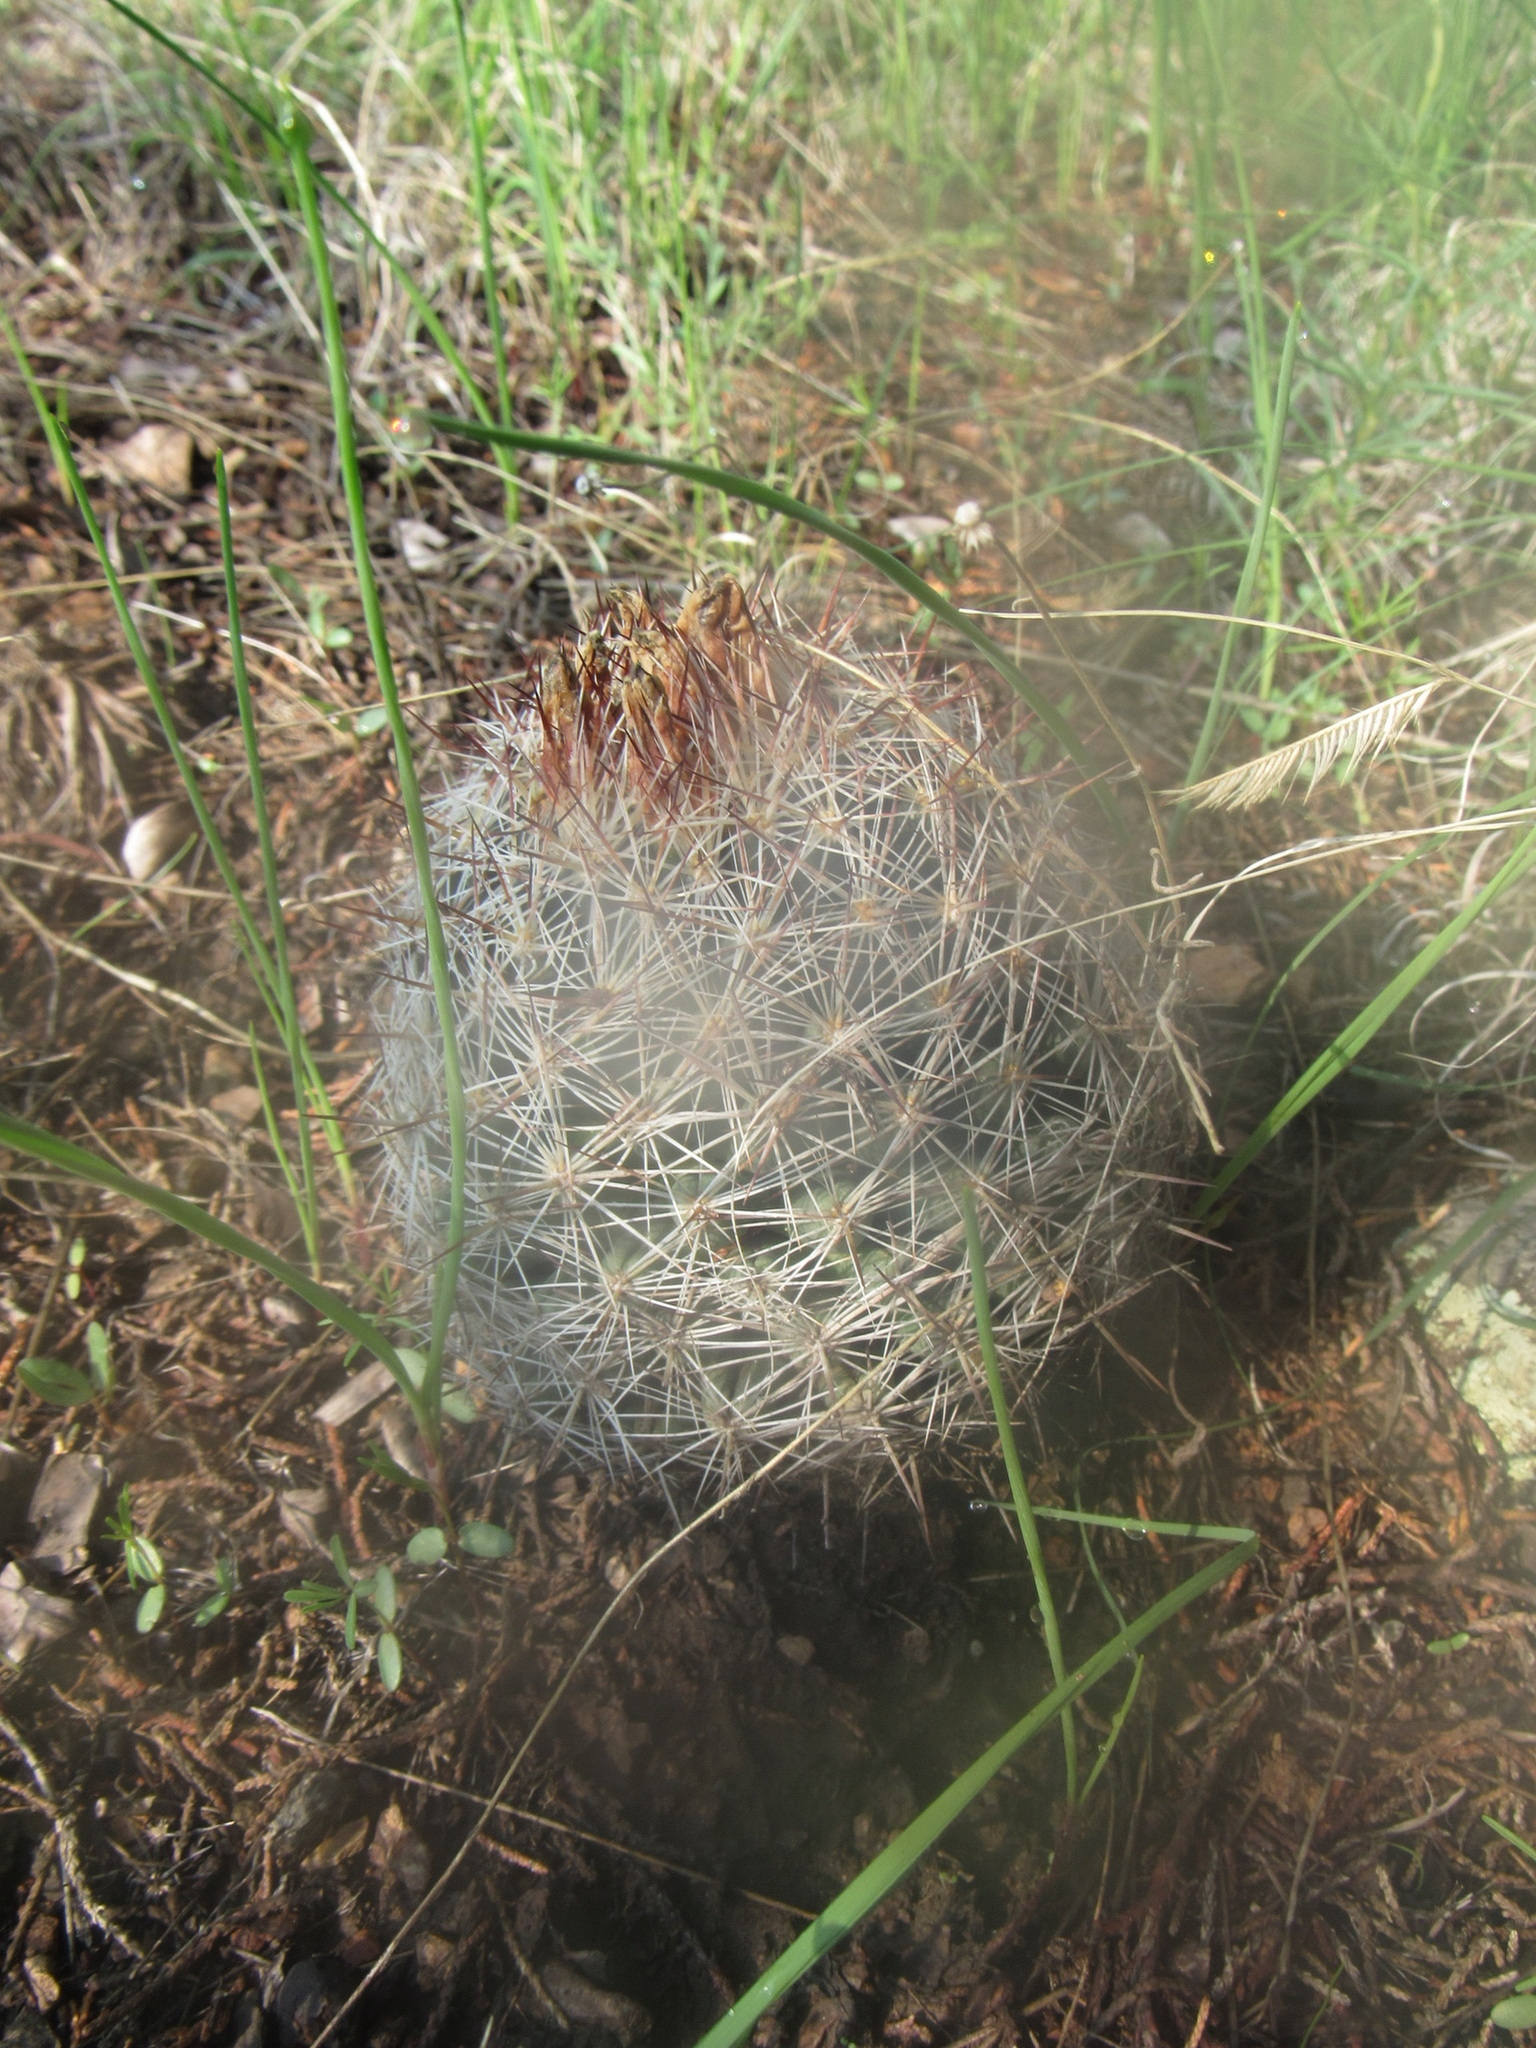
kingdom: Plantae
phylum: Tracheophyta
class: Magnoliopsida
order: Caryophyllales
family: Cactaceae
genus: Pelecyphora
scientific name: Pelecyphora vivipara
